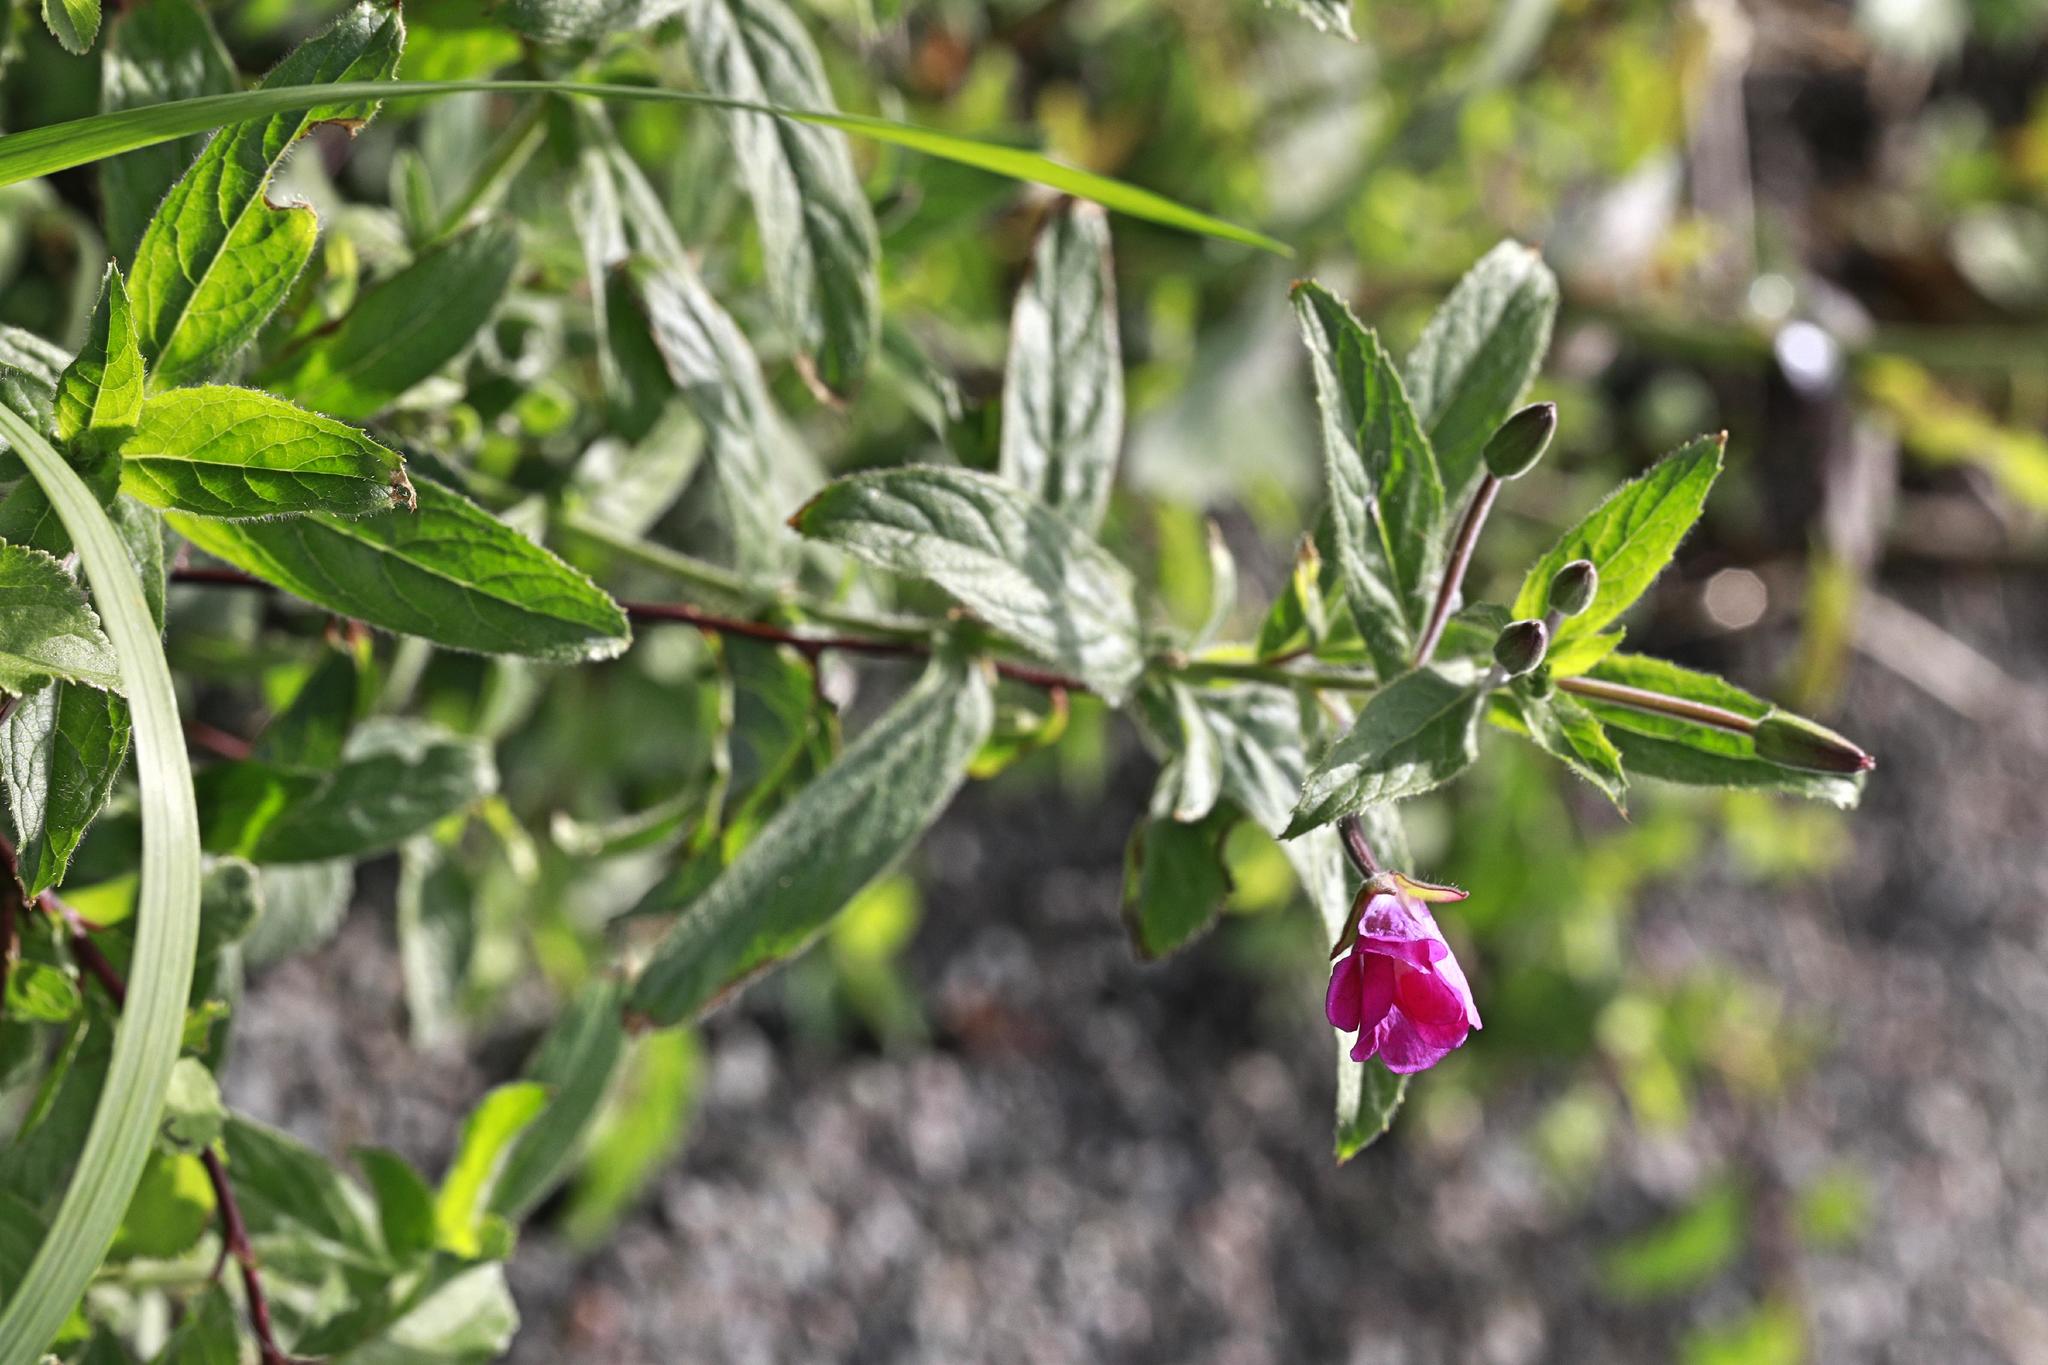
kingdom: Plantae
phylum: Tracheophyta
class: Magnoliopsida
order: Myrtales
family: Onagraceae
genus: Epilobium
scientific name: Epilobium hirsutum
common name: Great willowherb
